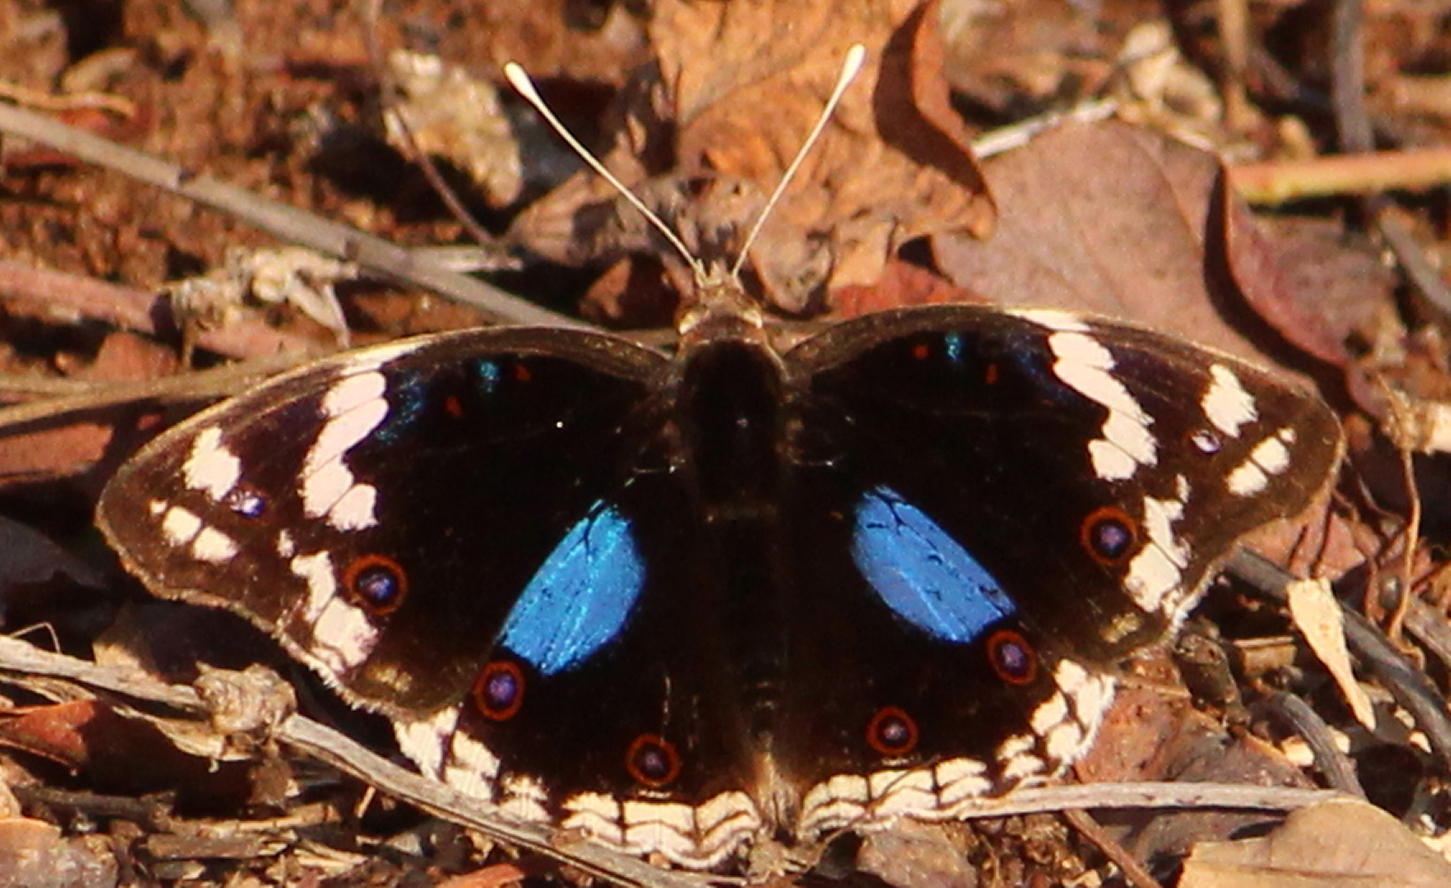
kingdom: Animalia
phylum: Arthropoda
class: Insecta
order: Lepidoptera
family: Nymphalidae
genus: Junonia
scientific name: Junonia oenone
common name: Dark blue pansy
